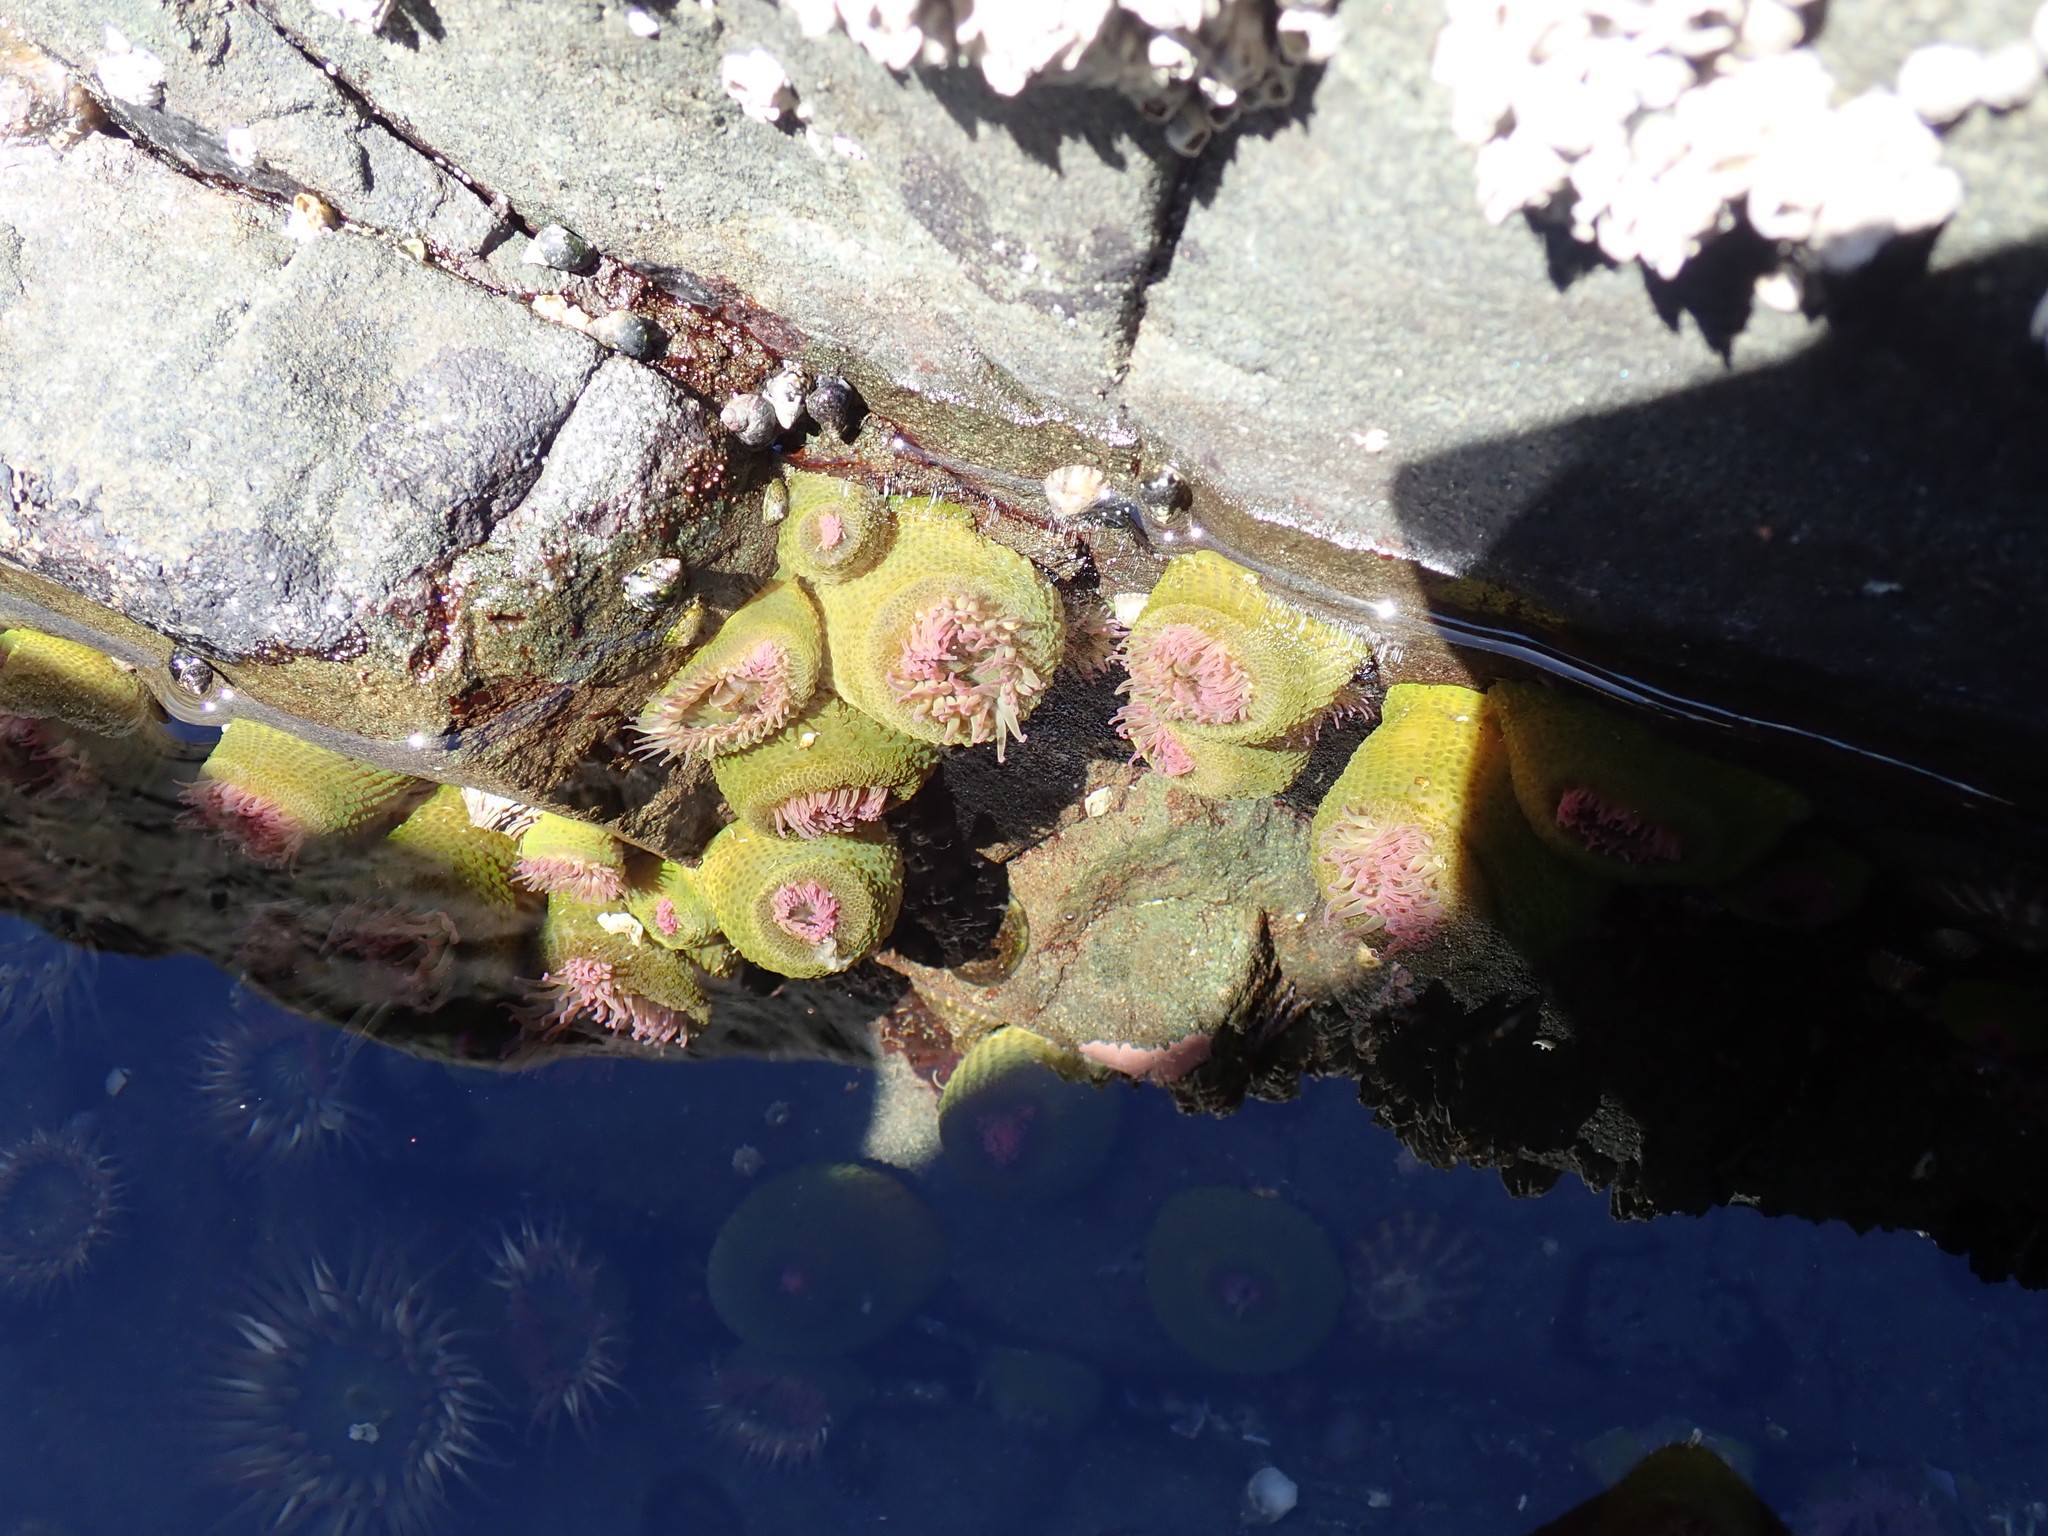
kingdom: Animalia
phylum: Cnidaria
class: Anthozoa
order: Actiniaria
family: Actiniidae
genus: Anthopleura
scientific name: Anthopleura elegantissima
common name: Clonal anemone
